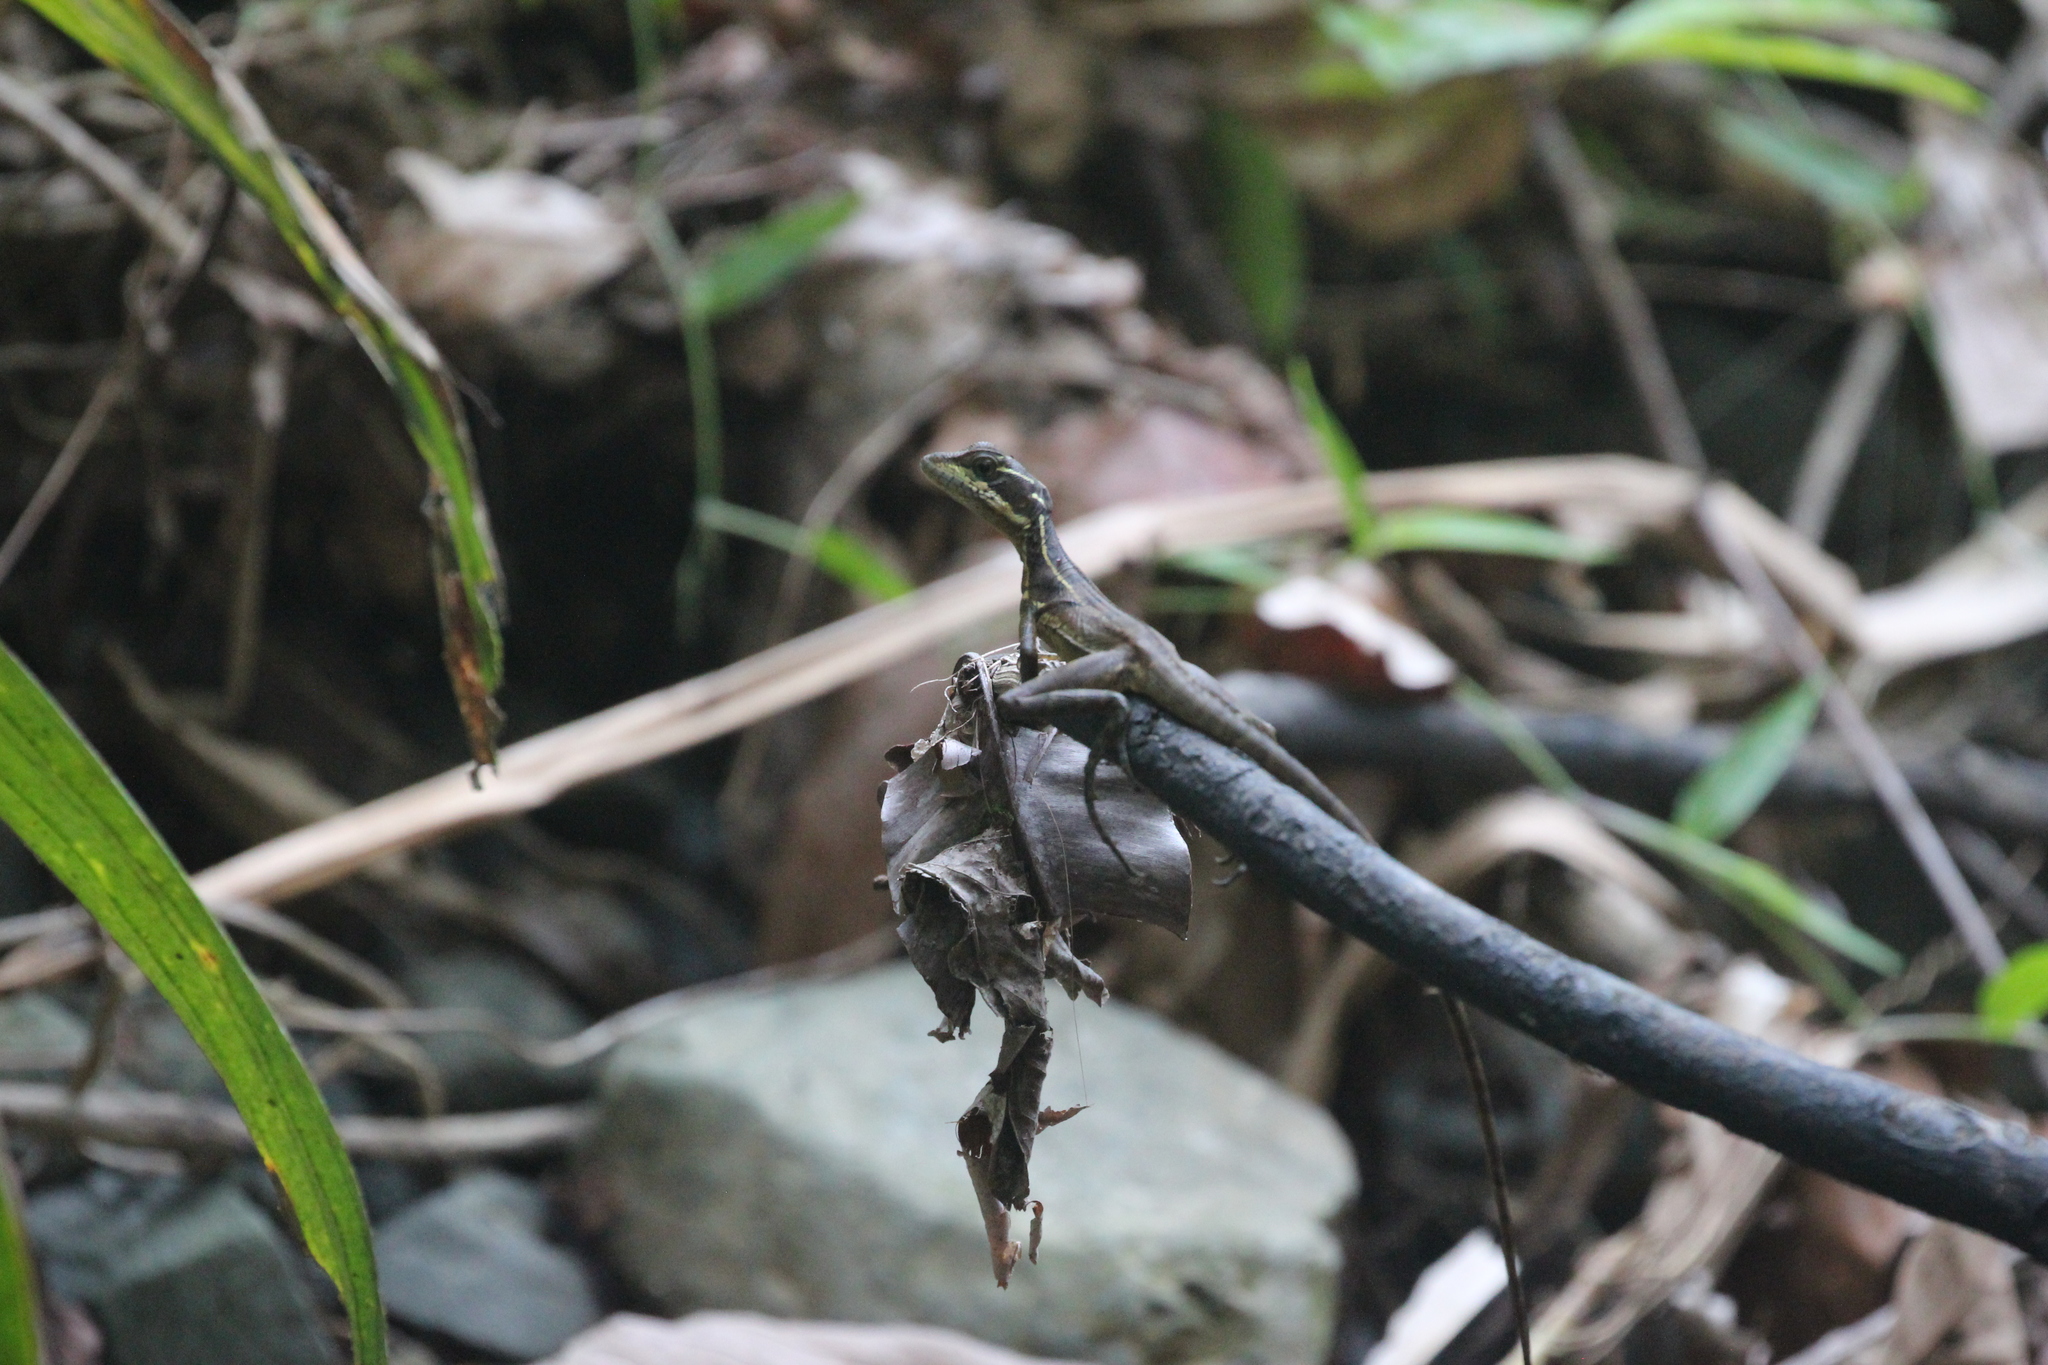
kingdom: Animalia
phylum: Chordata
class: Squamata
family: Corytophanidae
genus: Basiliscus
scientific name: Basiliscus basiliscus
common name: Common basilisk
